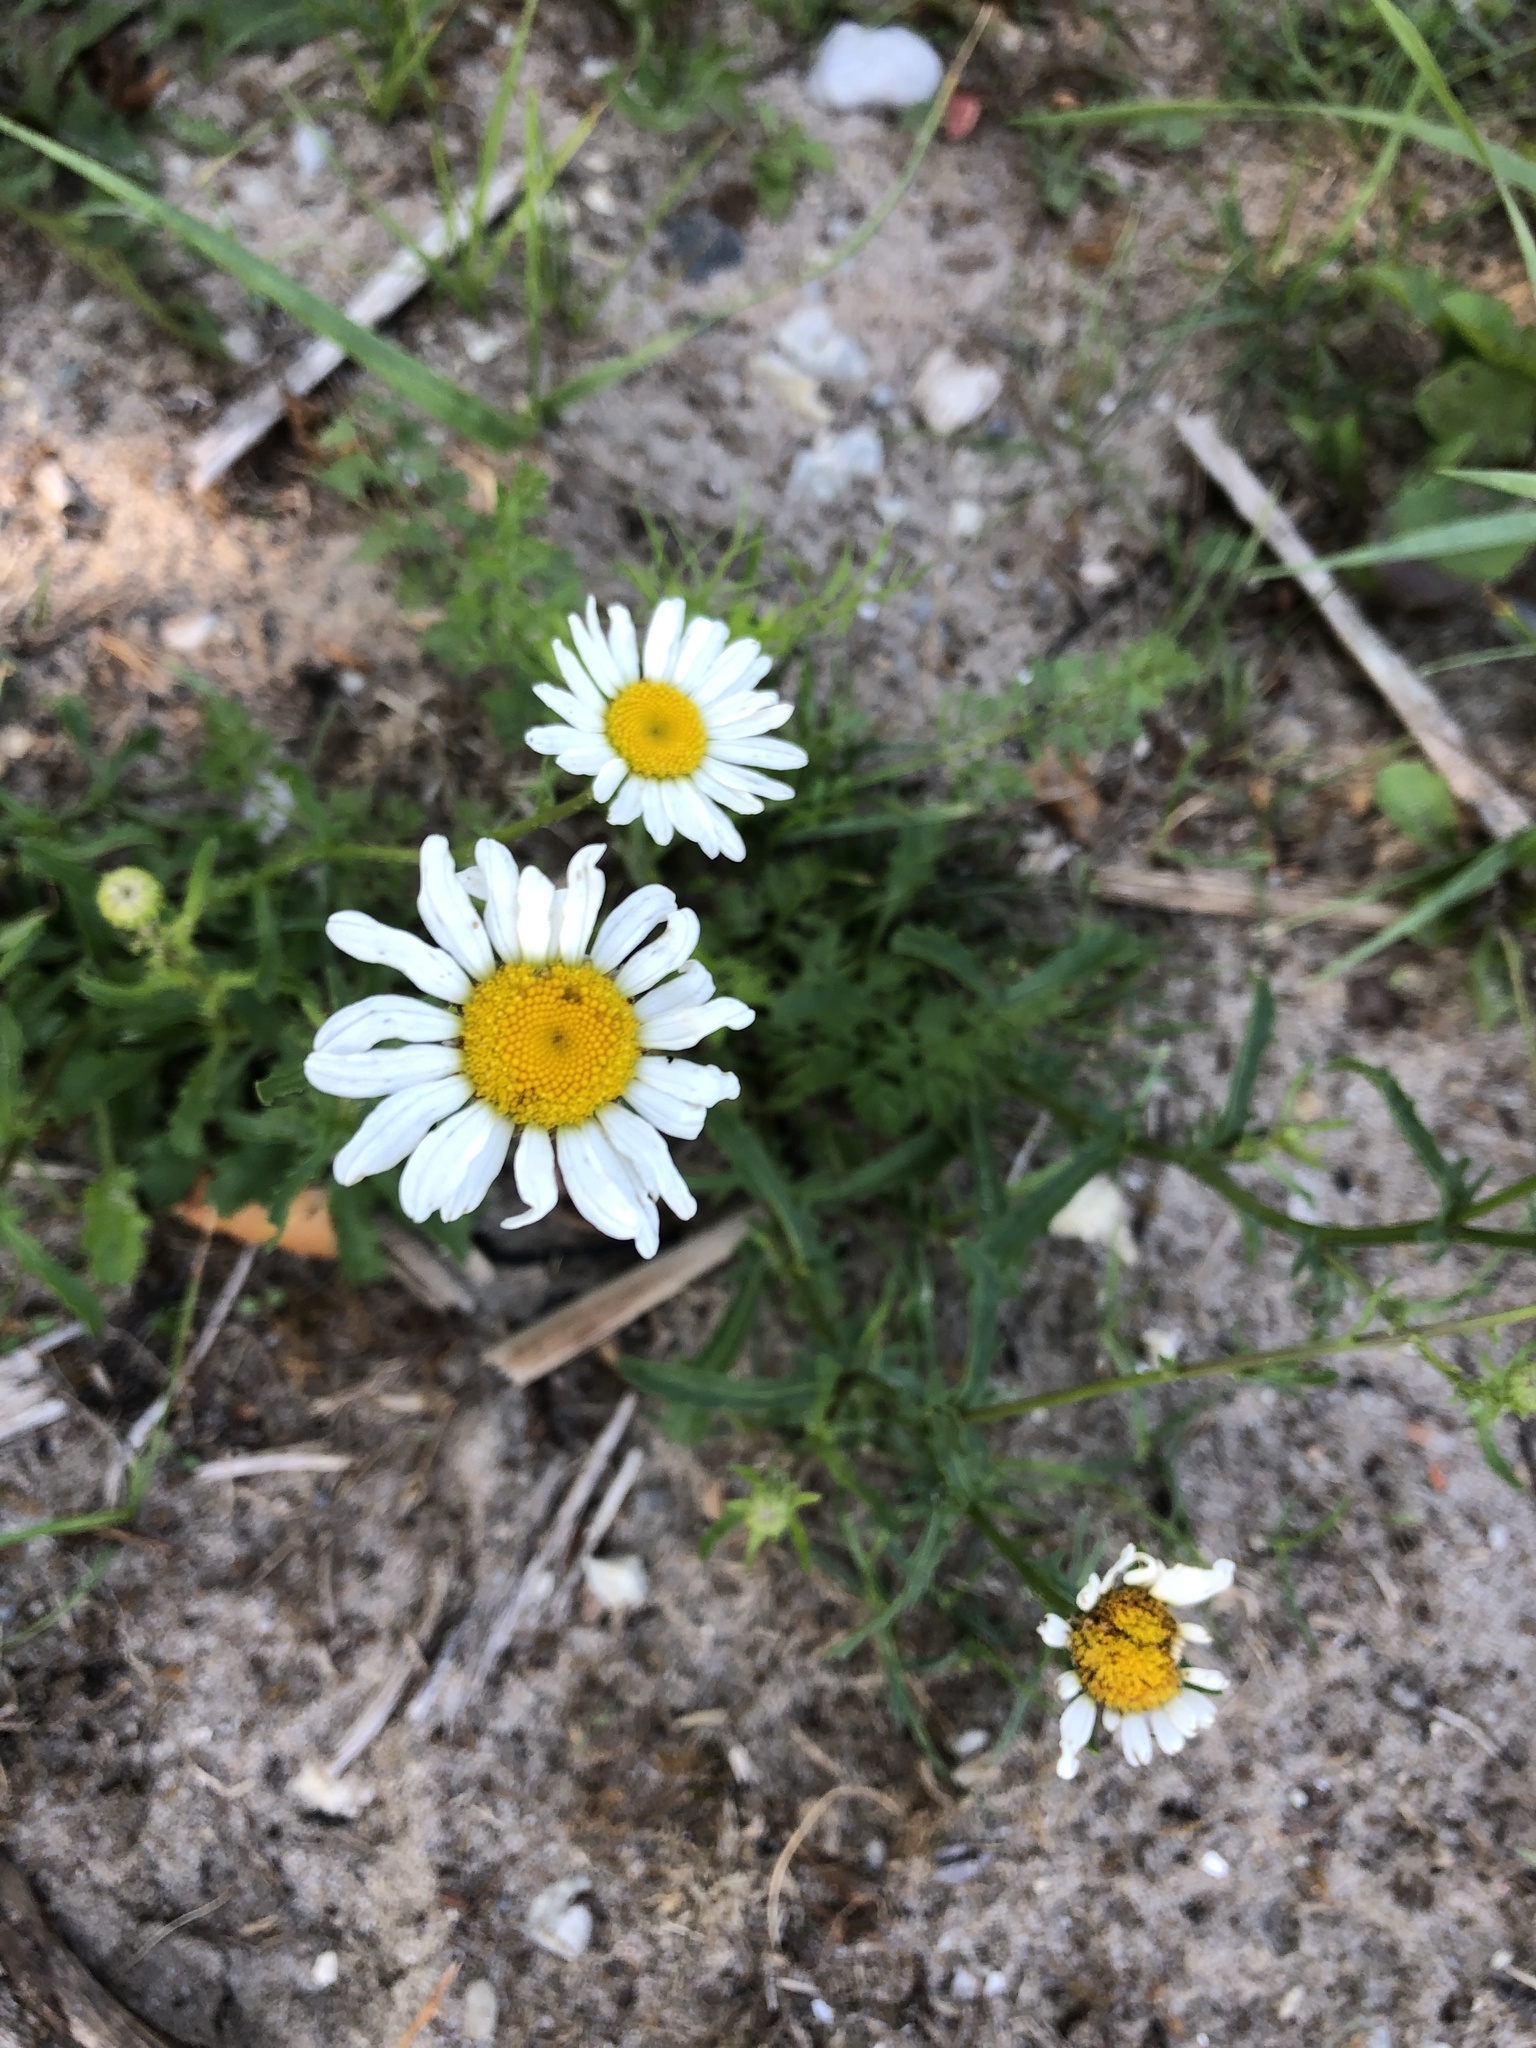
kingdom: Plantae
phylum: Tracheophyta
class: Magnoliopsida
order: Asterales
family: Asteraceae
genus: Leucanthemum
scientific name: Leucanthemum vulgare
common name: Oxeye daisy
